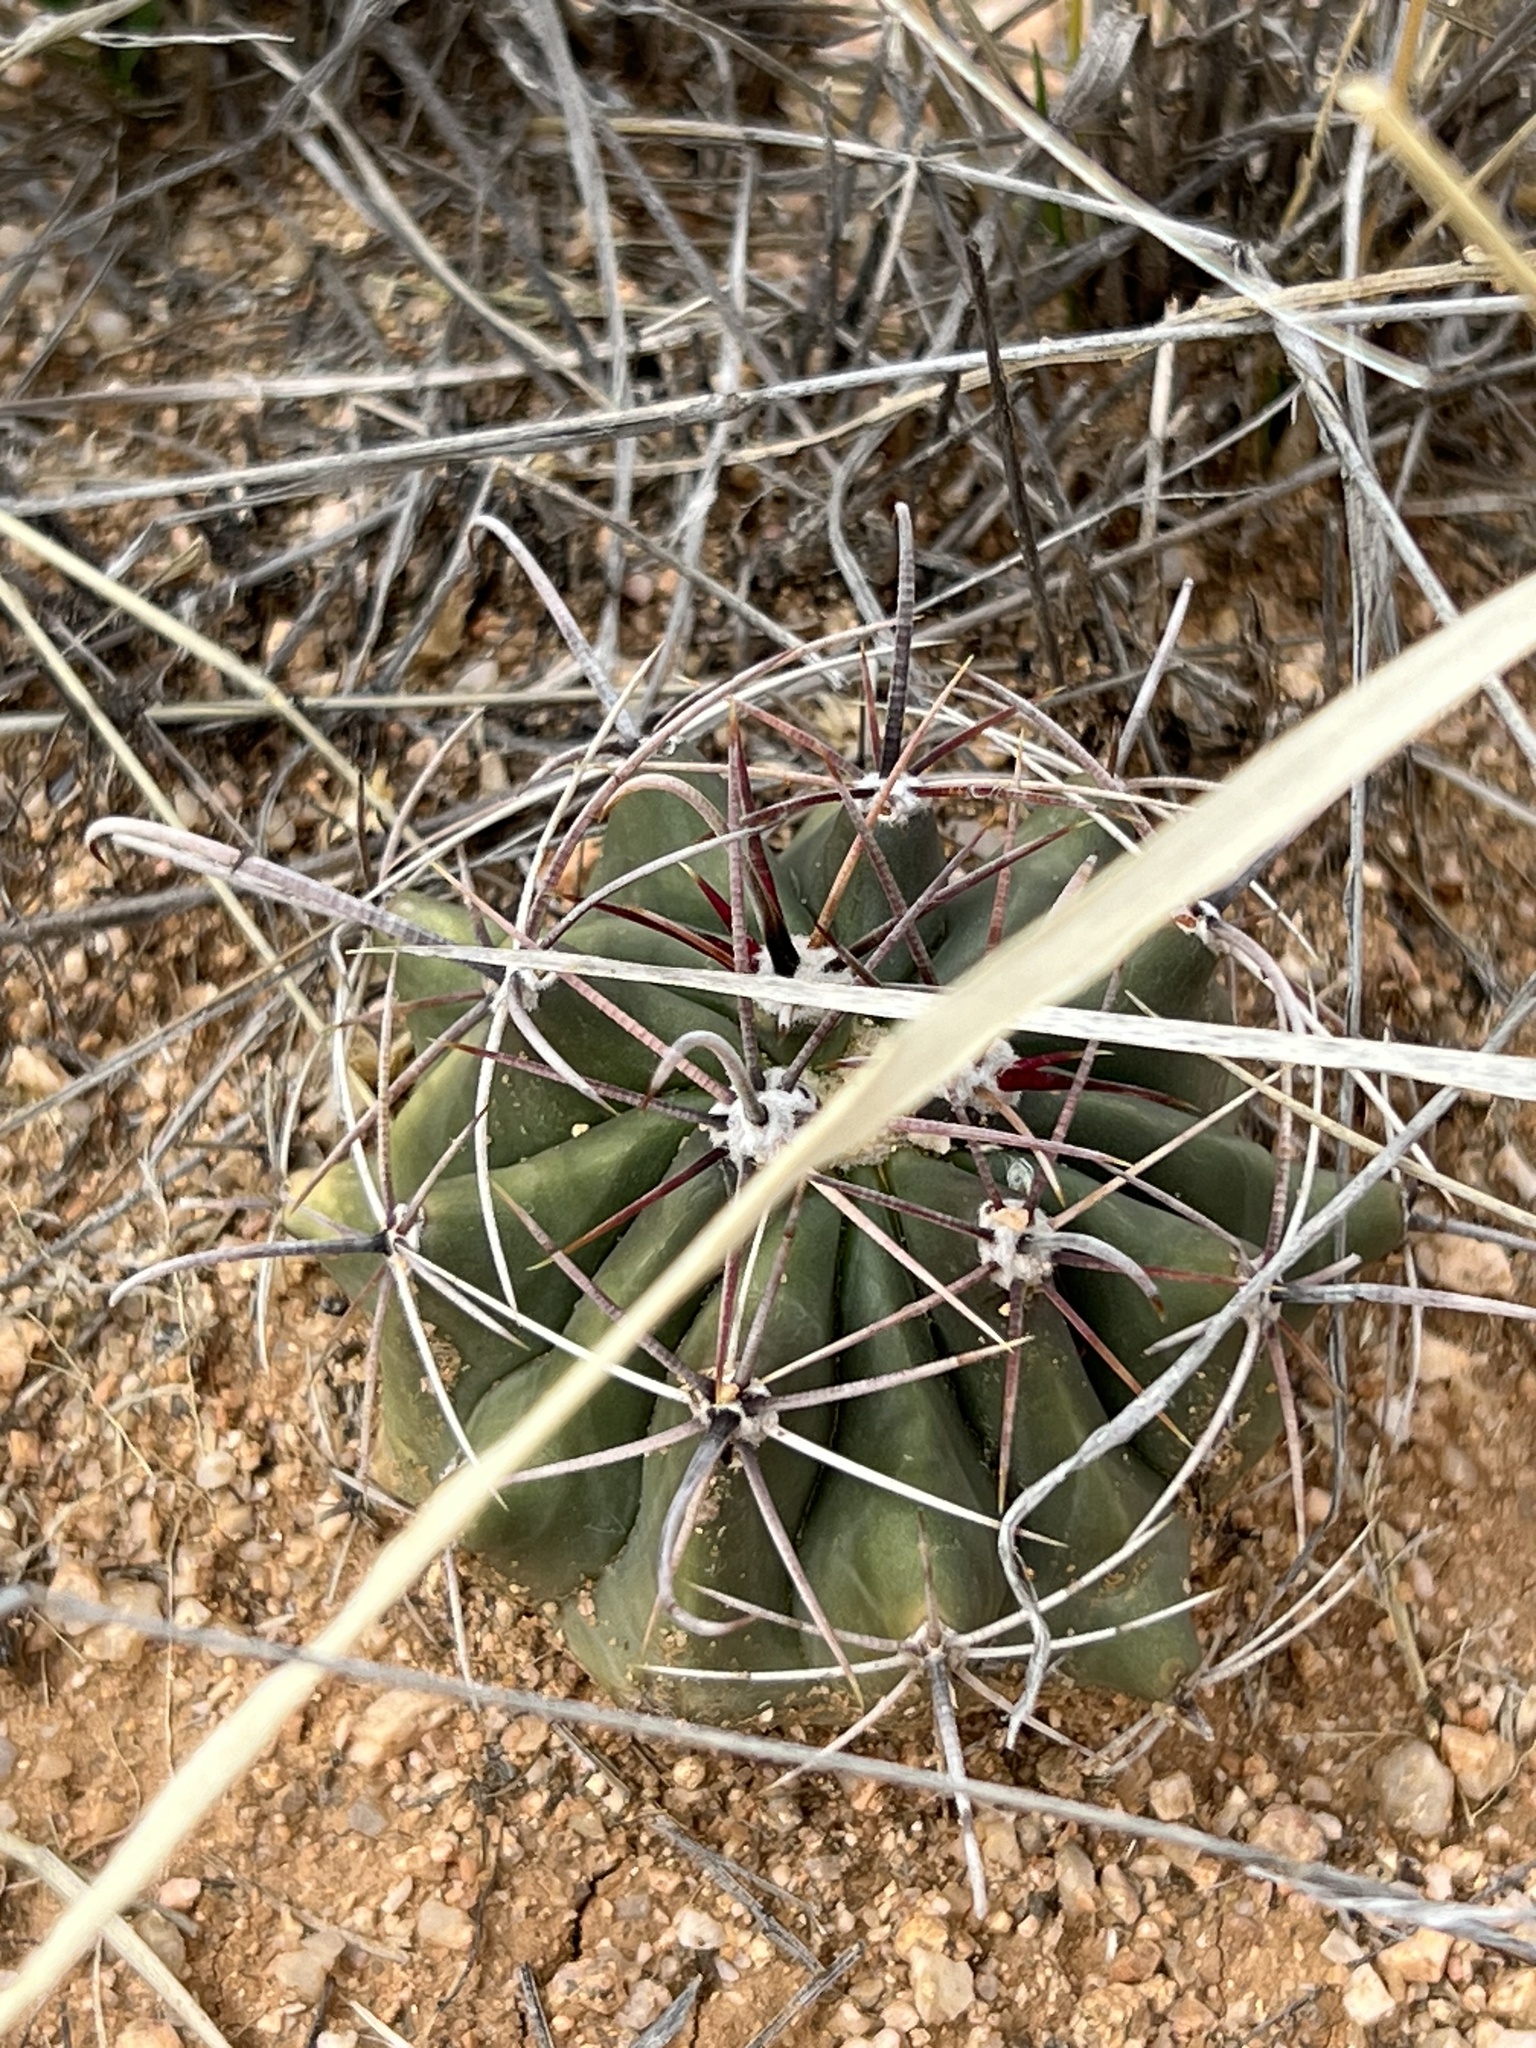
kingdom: Plantae
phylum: Tracheophyta
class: Magnoliopsida
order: Caryophyllales
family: Cactaceae
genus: Ferocactus
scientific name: Ferocactus wislizeni
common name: Candy barrel cactus
